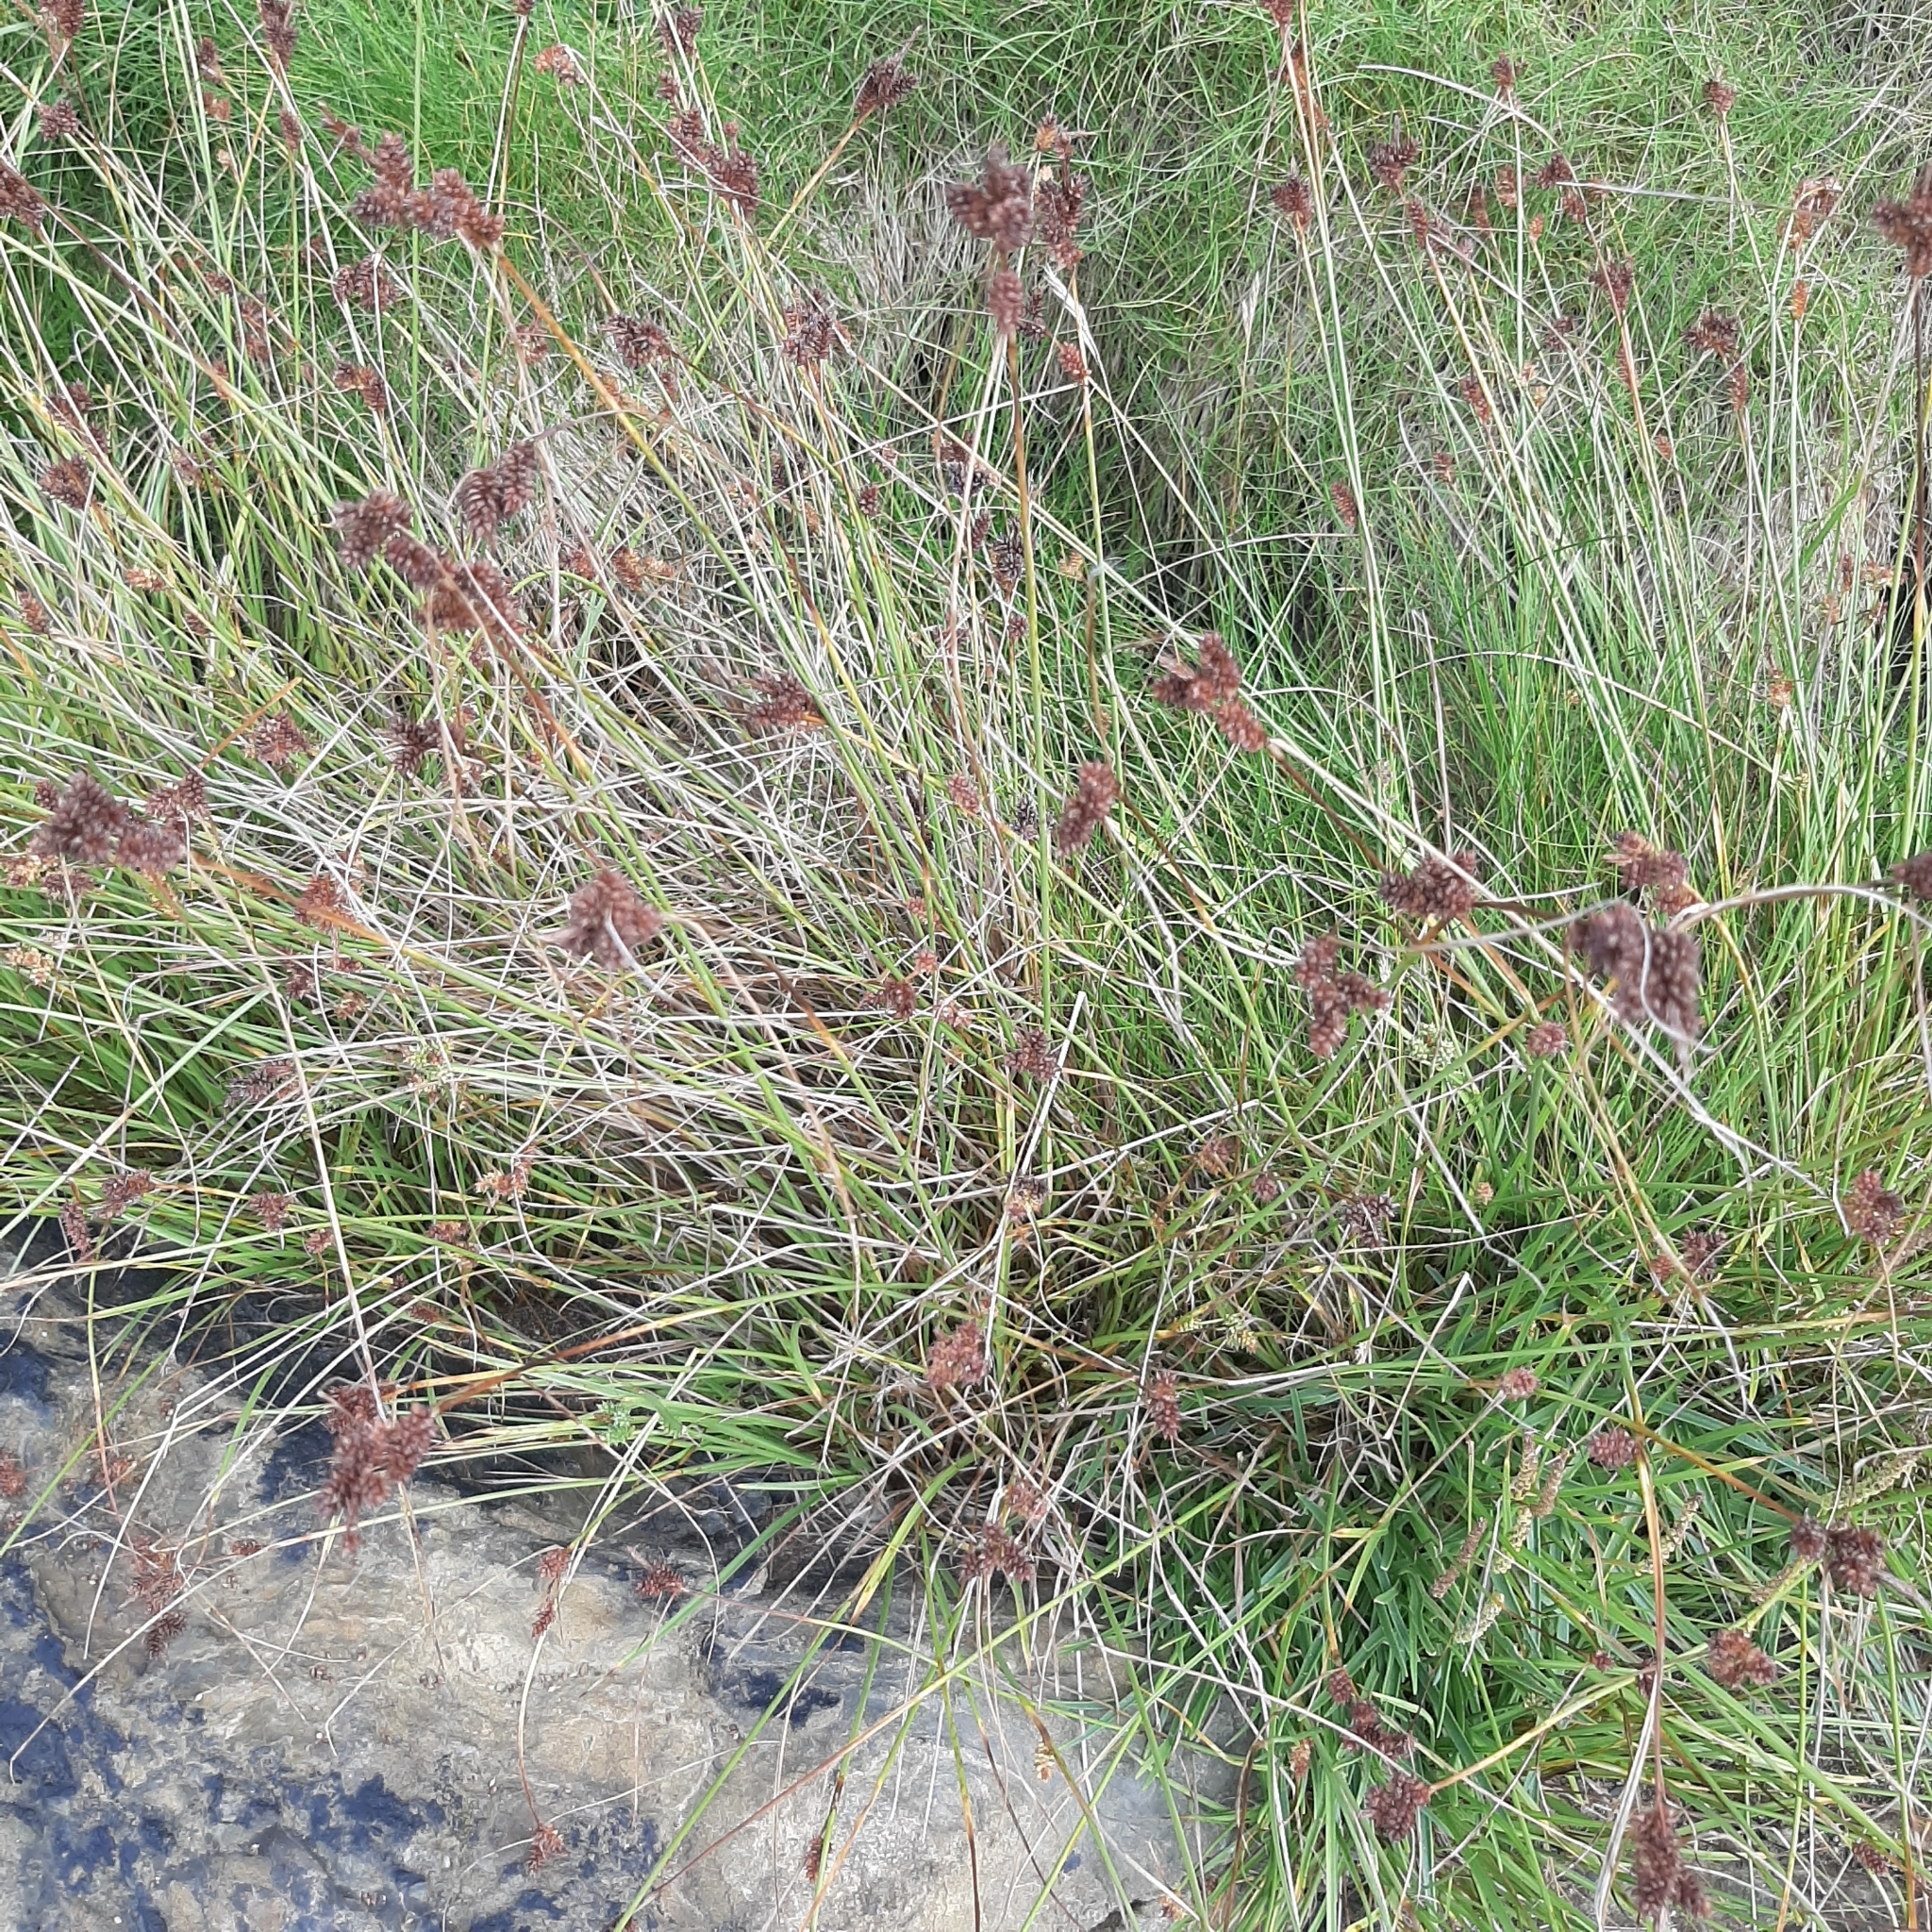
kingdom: Plantae
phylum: Tracheophyta
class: Liliopsida
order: Poales
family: Cyperaceae
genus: Carex
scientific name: Carex extensa
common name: Long-bracted sedge
